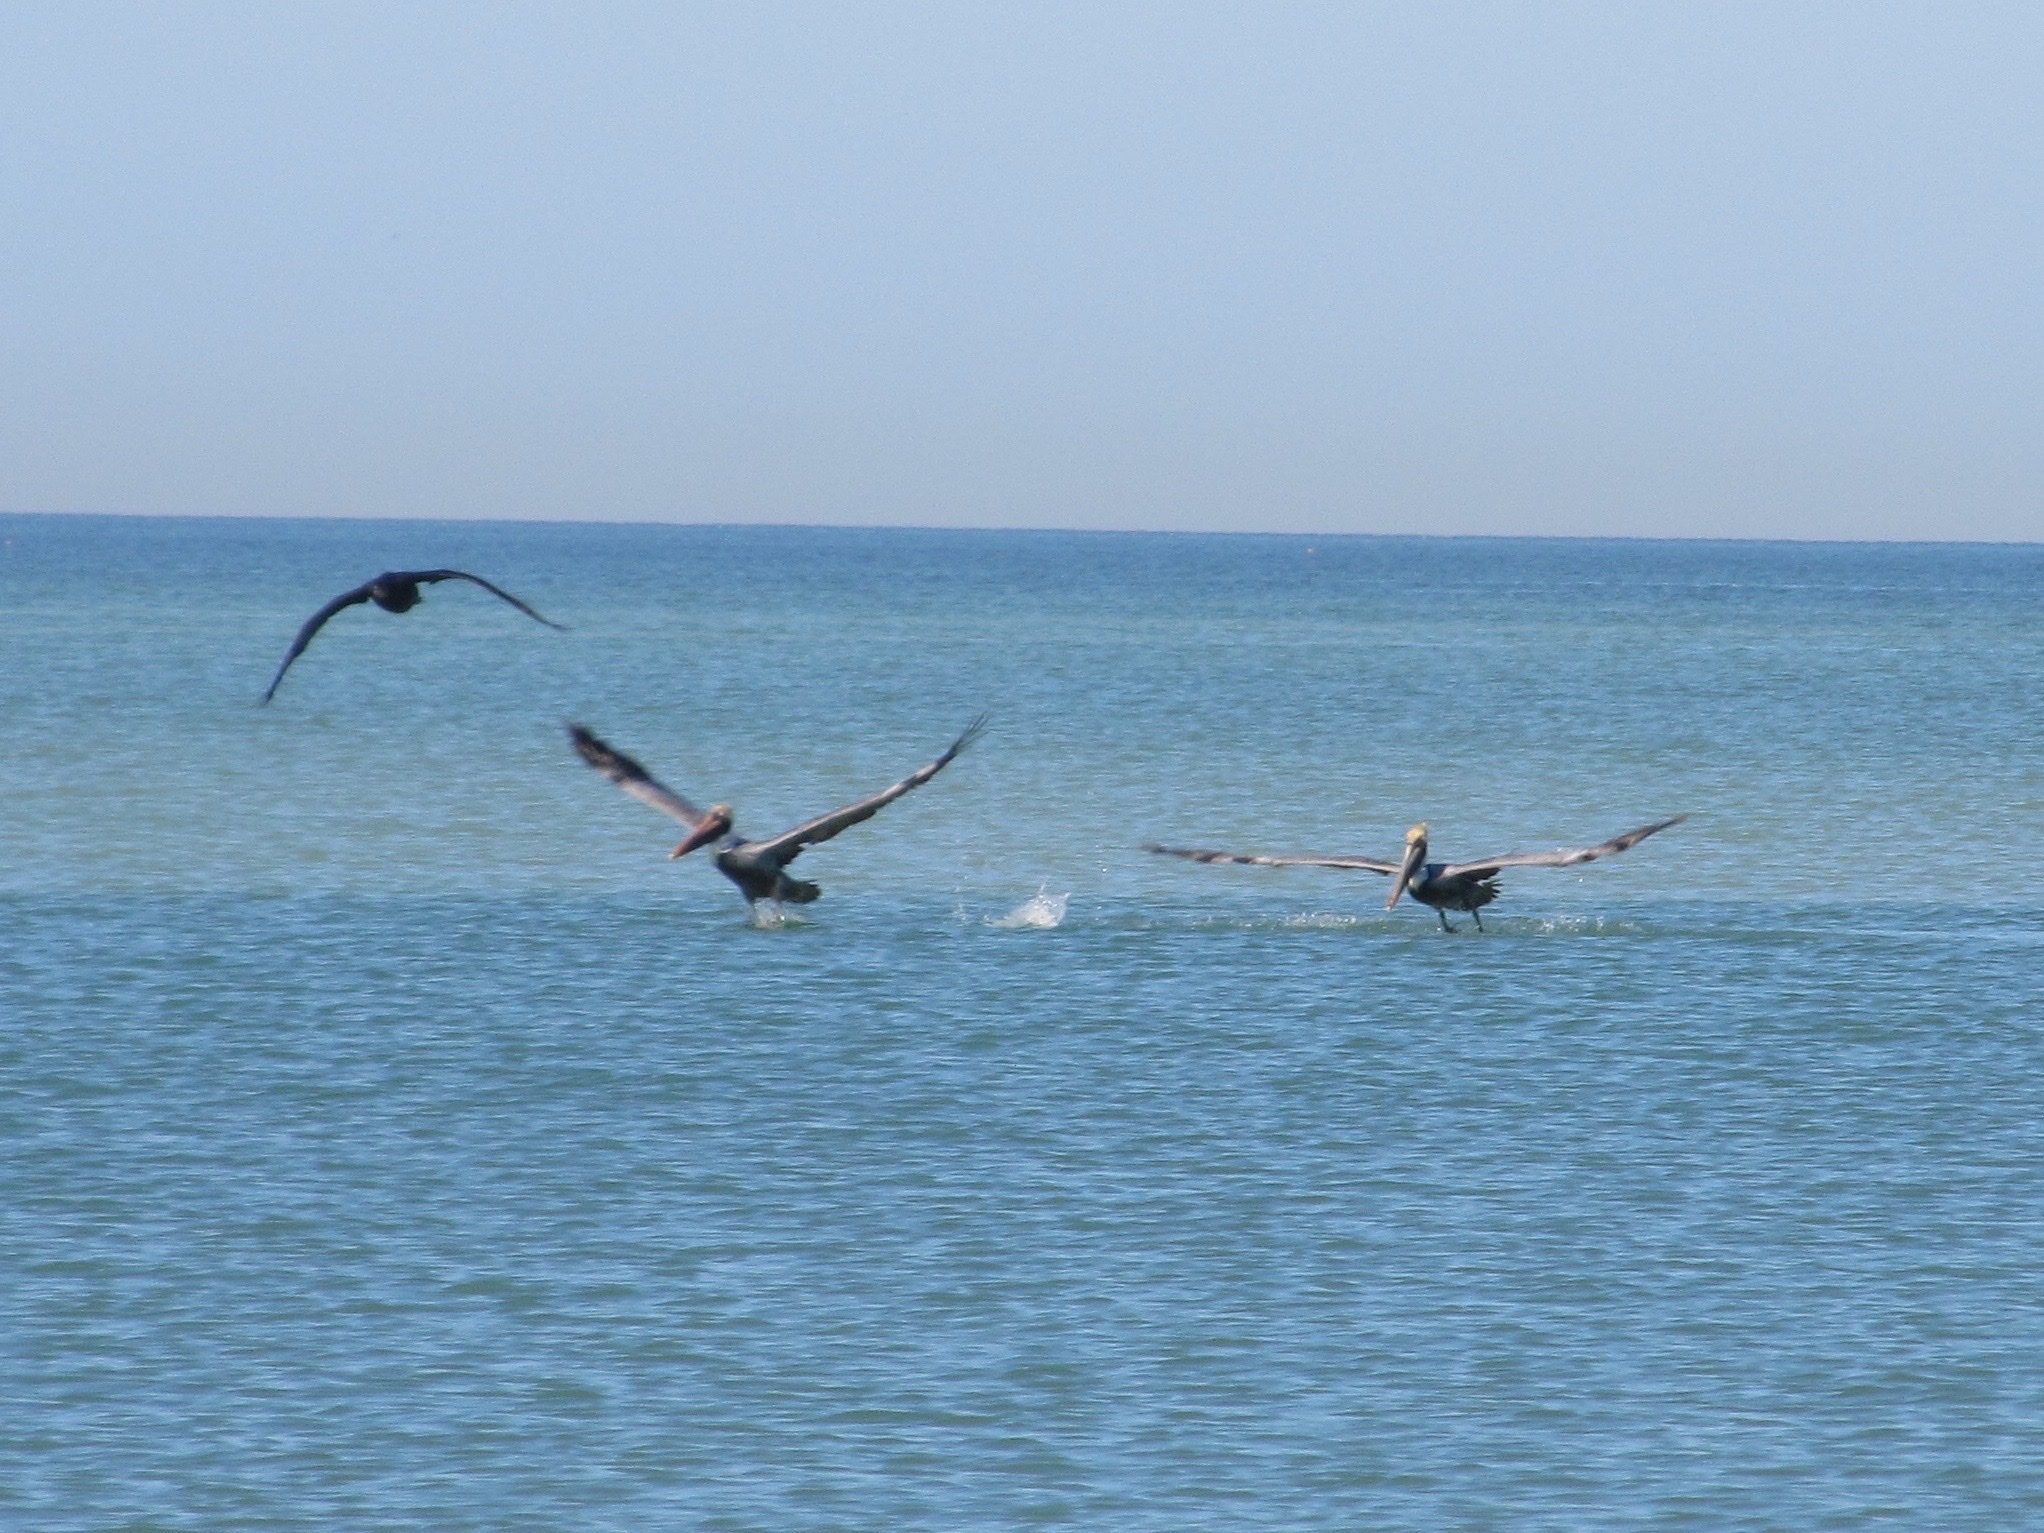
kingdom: Animalia
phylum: Chordata
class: Aves
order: Pelecaniformes
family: Pelecanidae
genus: Pelecanus
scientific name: Pelecanus occidentalis
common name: Brown pelican
